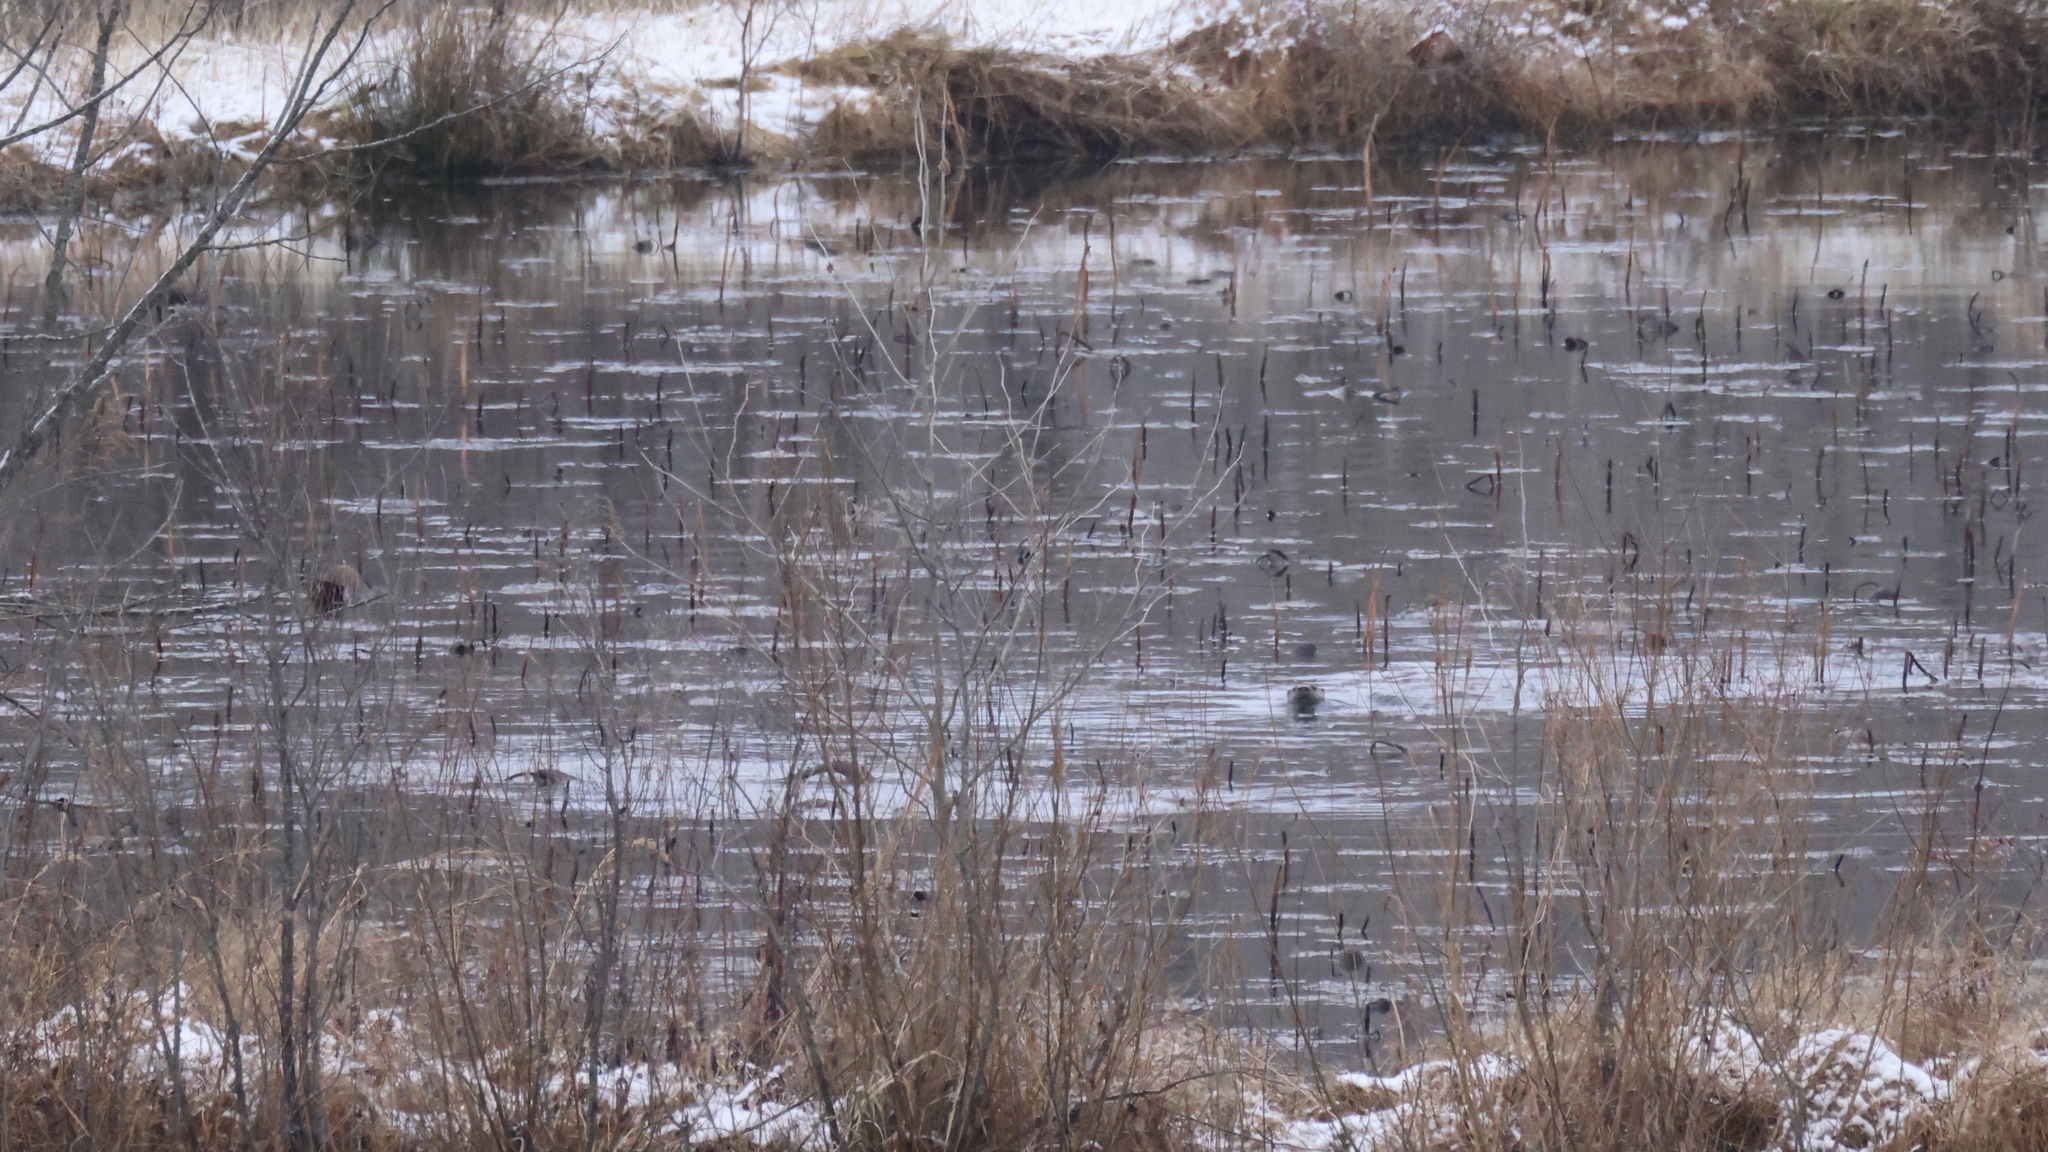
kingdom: Animalia
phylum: Chordata
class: Mammalia
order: Carnivora
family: Mustelidae
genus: Lontra
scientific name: Lontra canadensis
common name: North american river otter
